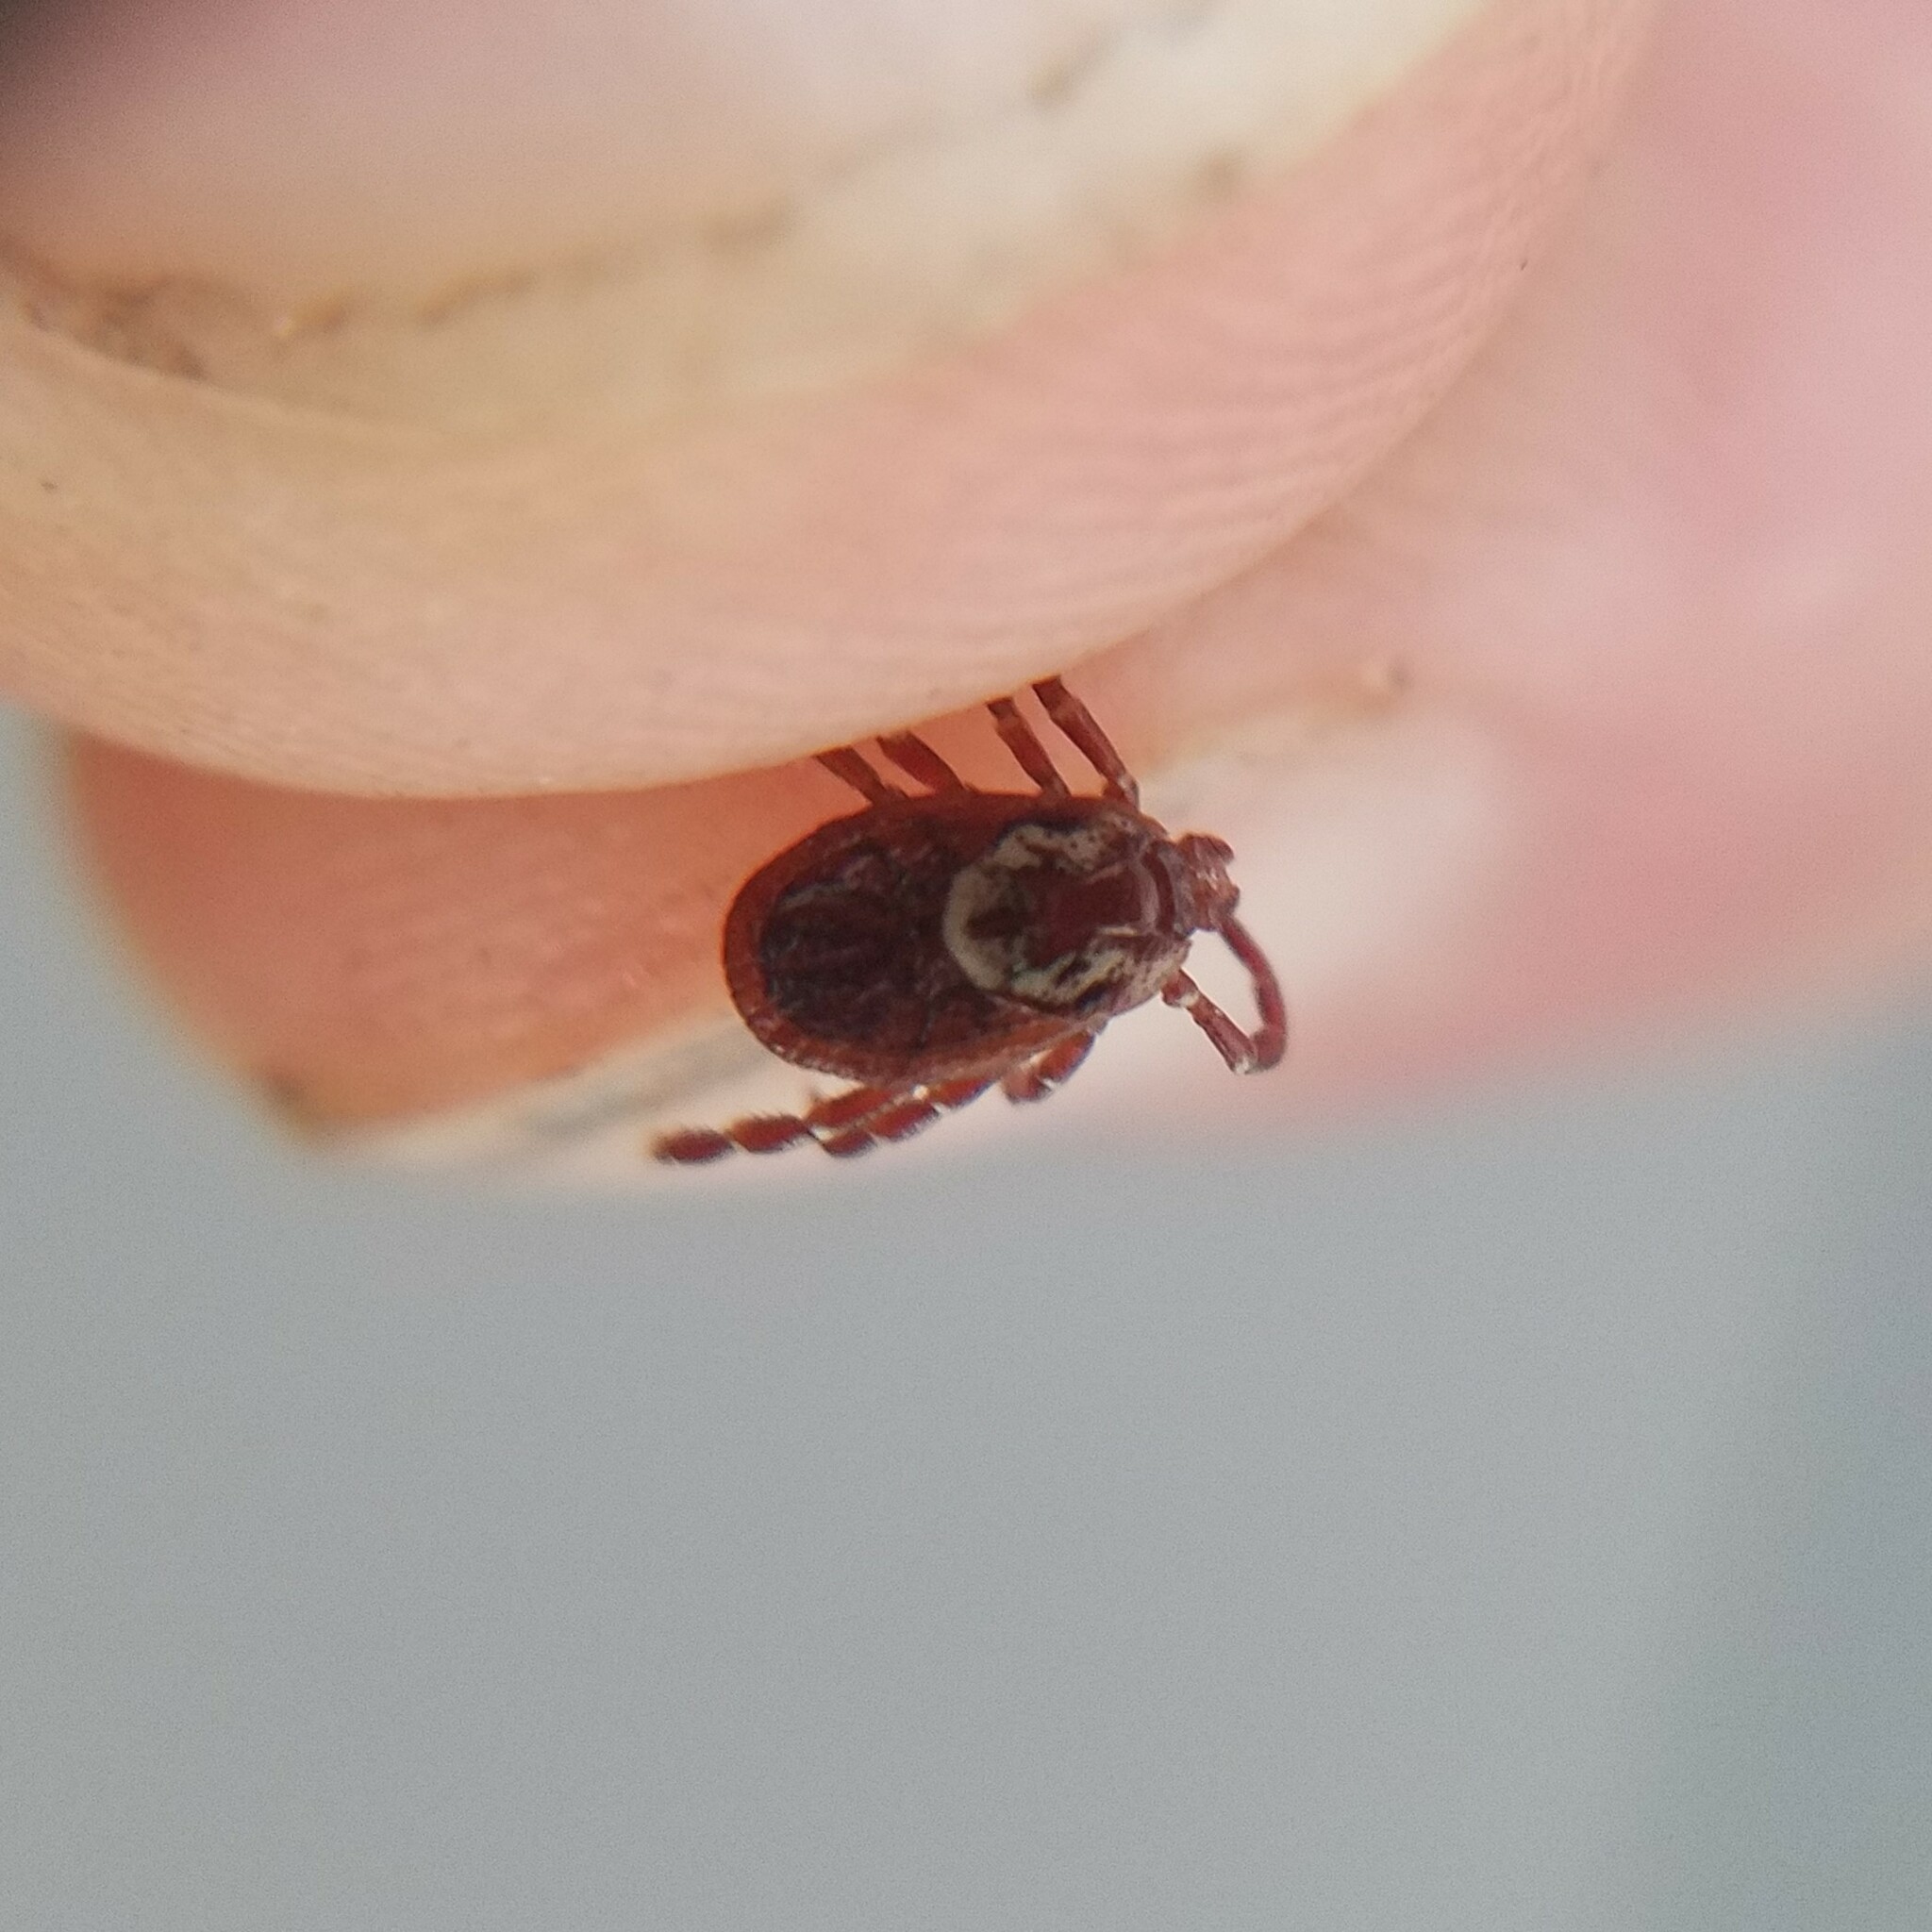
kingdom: Animalia
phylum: Arthropoda
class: Arachnida
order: Ixodida
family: Ixodidae
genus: Dermacentor
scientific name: Dermacentor variabilis
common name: American dog tick
